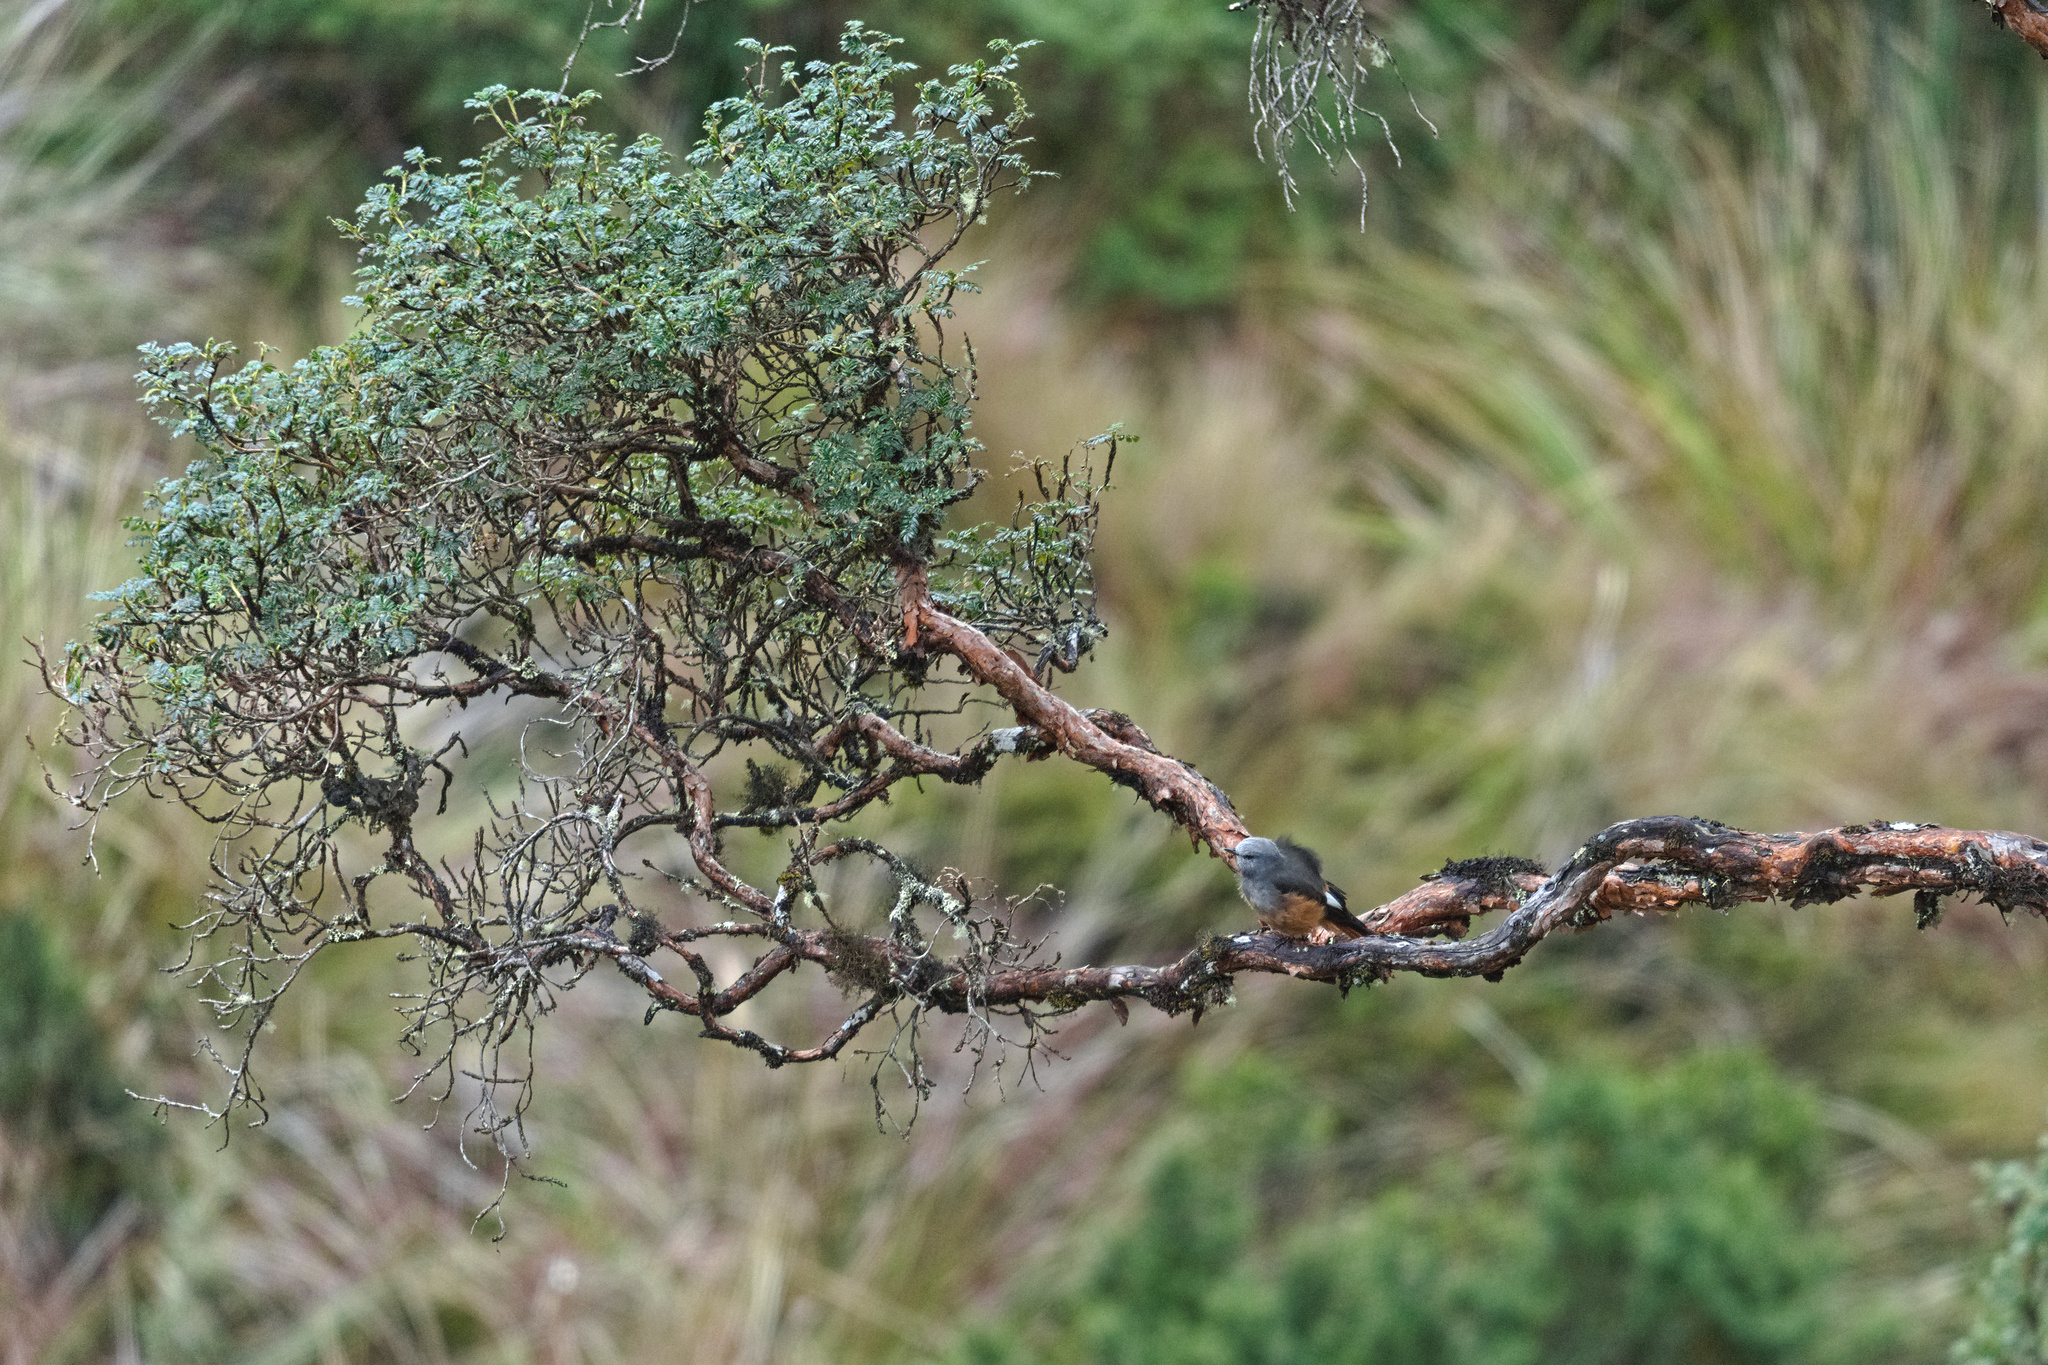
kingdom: Animalia
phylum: Chordata
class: Aves
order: Passeriformes
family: Tyrannidae
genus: Cnemarchus
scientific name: Cnemarchus erythropygius
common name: Red-rumped bush tyrant
